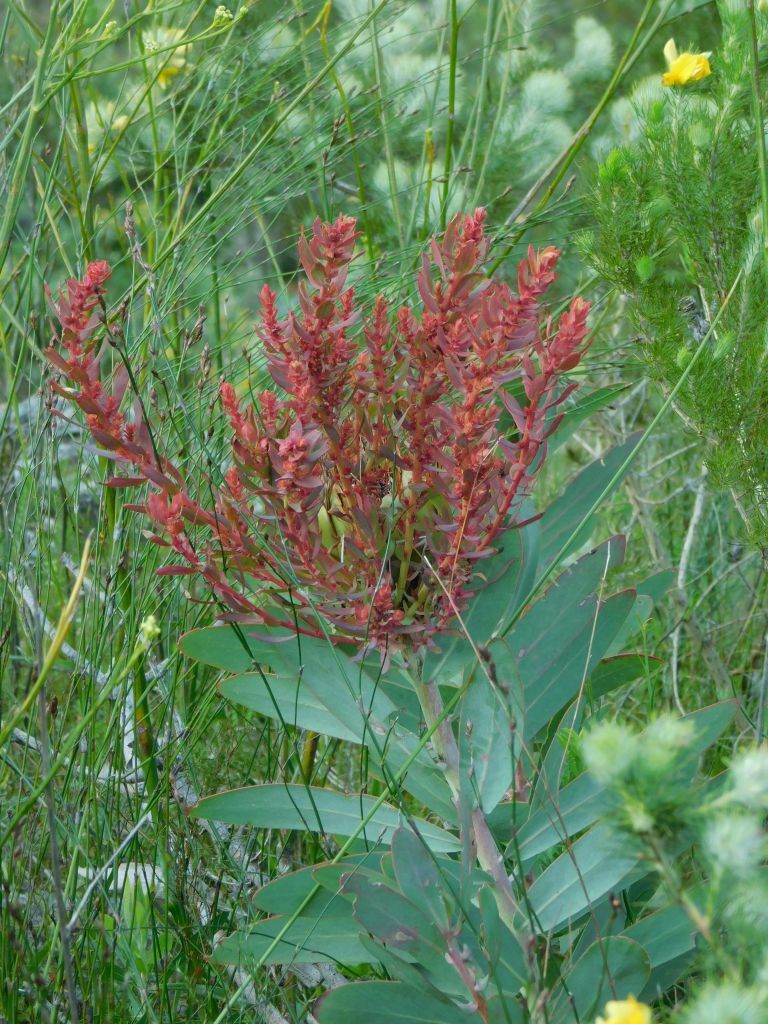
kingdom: Bacteria
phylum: Firmicutes
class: Bacilli
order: Acholeplasmatales
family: Acholeplasmataceae
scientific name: Acholeplasmataceae
